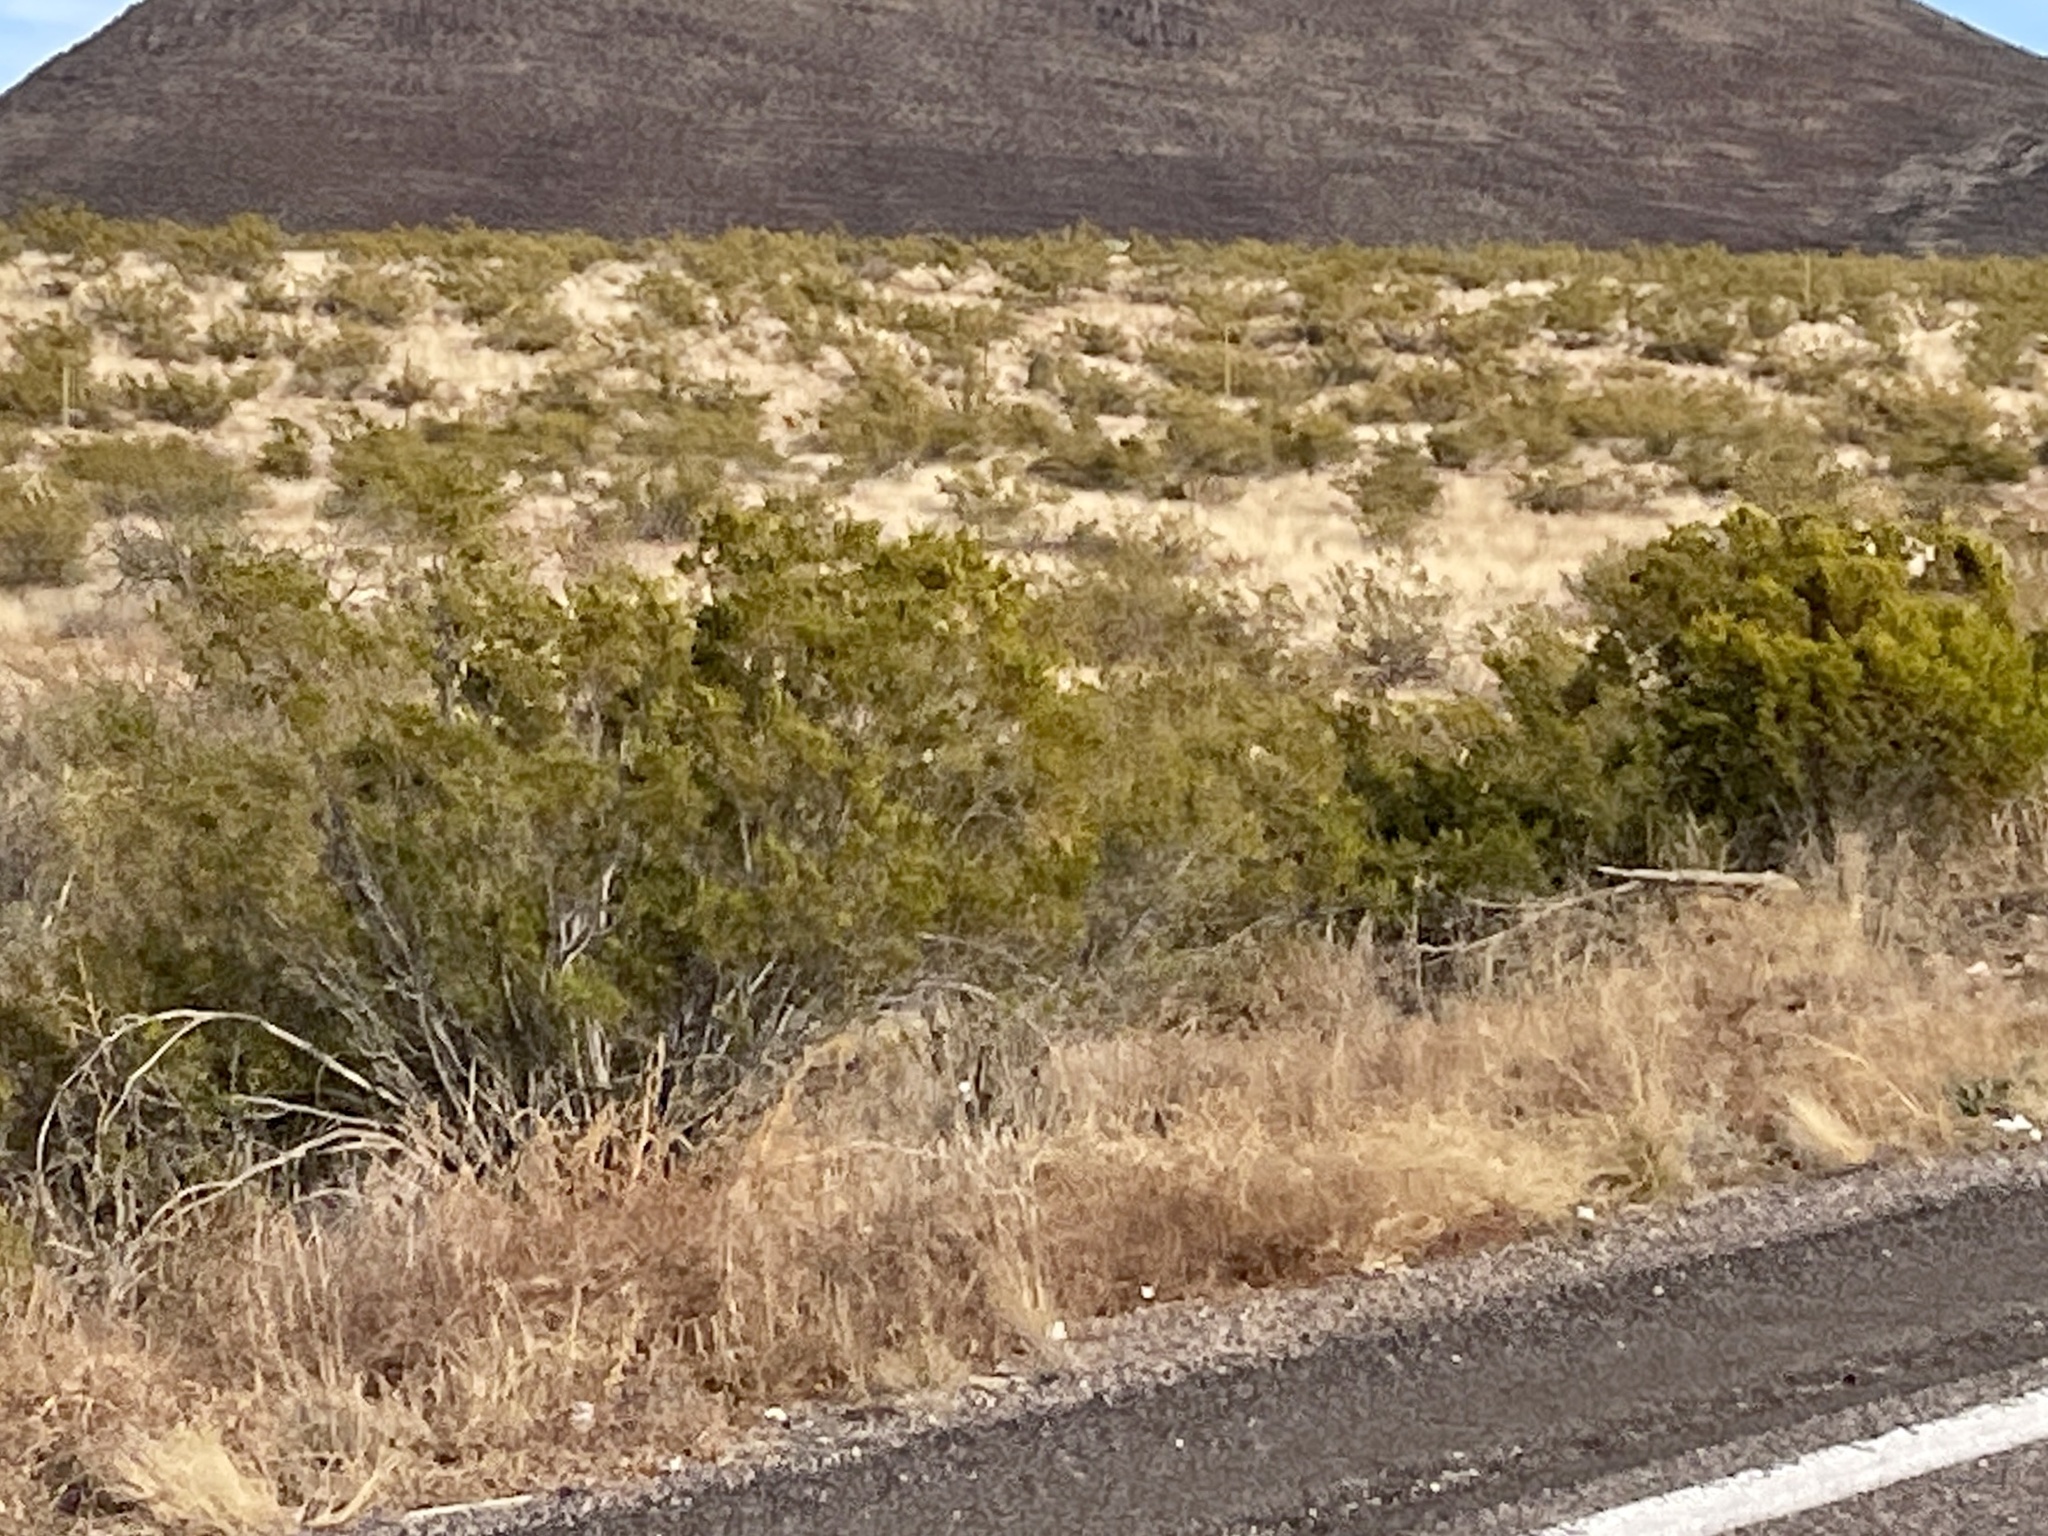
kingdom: Plantae
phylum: Tracheophyta
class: Magnoliopsida
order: Zygophyllales
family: Zygophyllaceae
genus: Larrea
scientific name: Larrea tridentata
